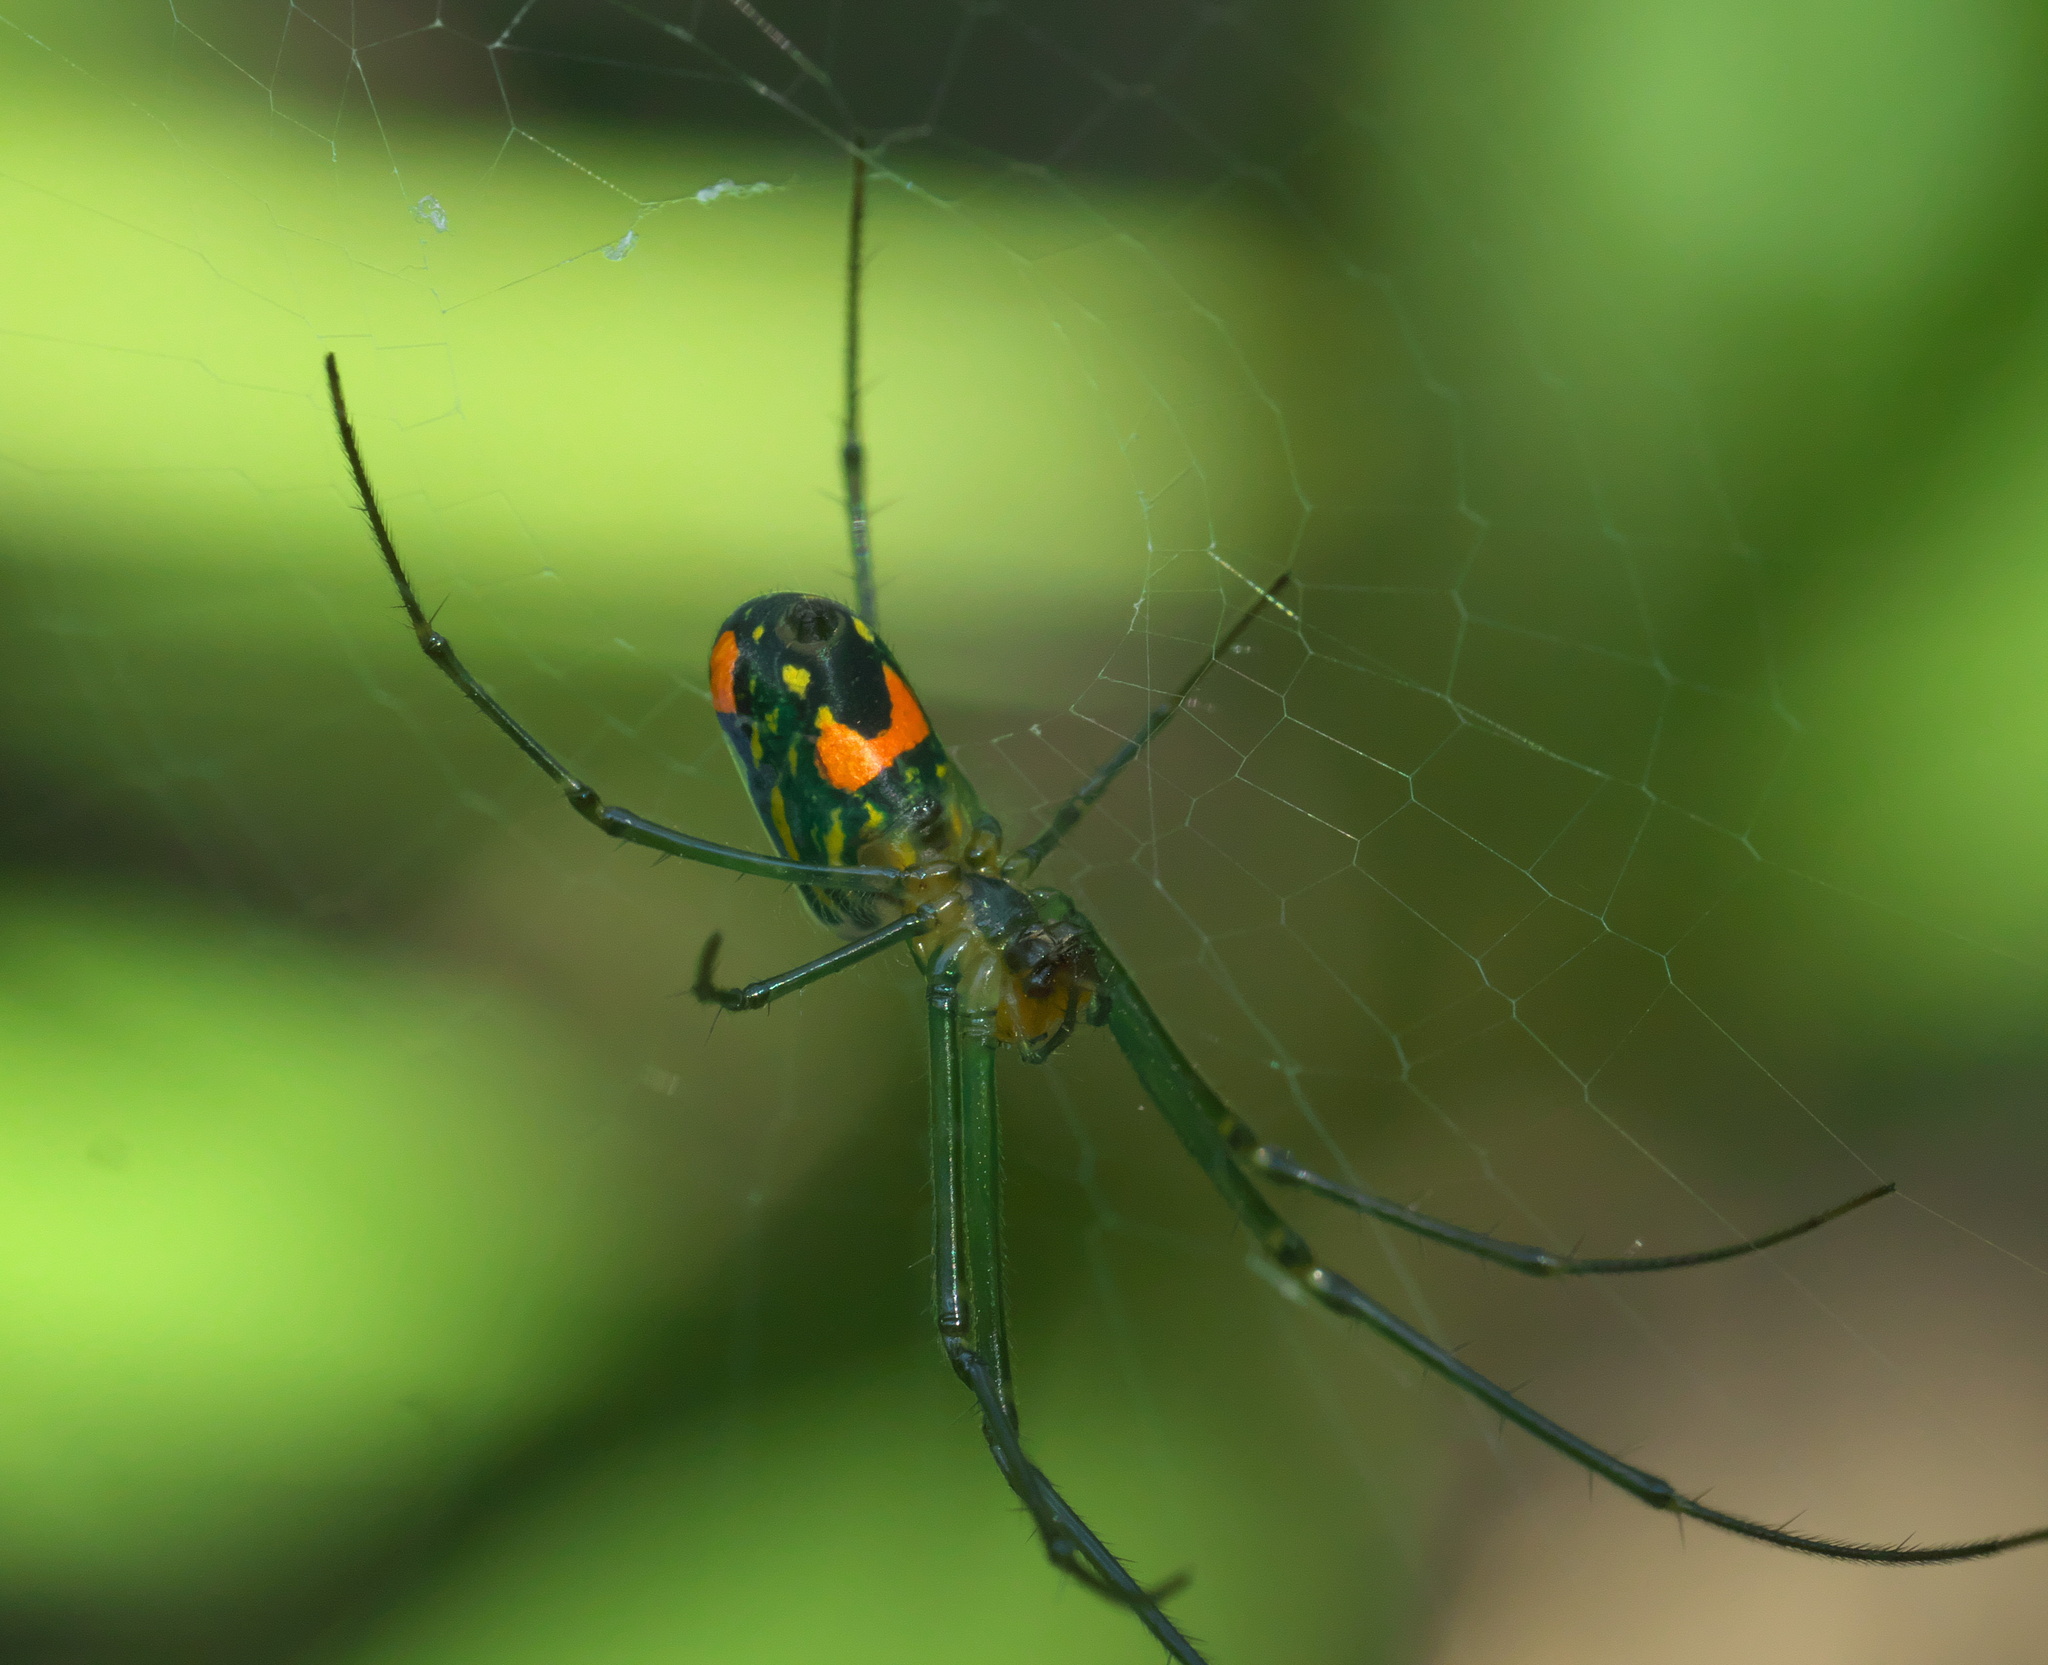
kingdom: Animalia
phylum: Arthropoda
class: Arachnida
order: Araneae
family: Tetragnathidae
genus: Leucauge
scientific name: Leucauge argyrobapta
